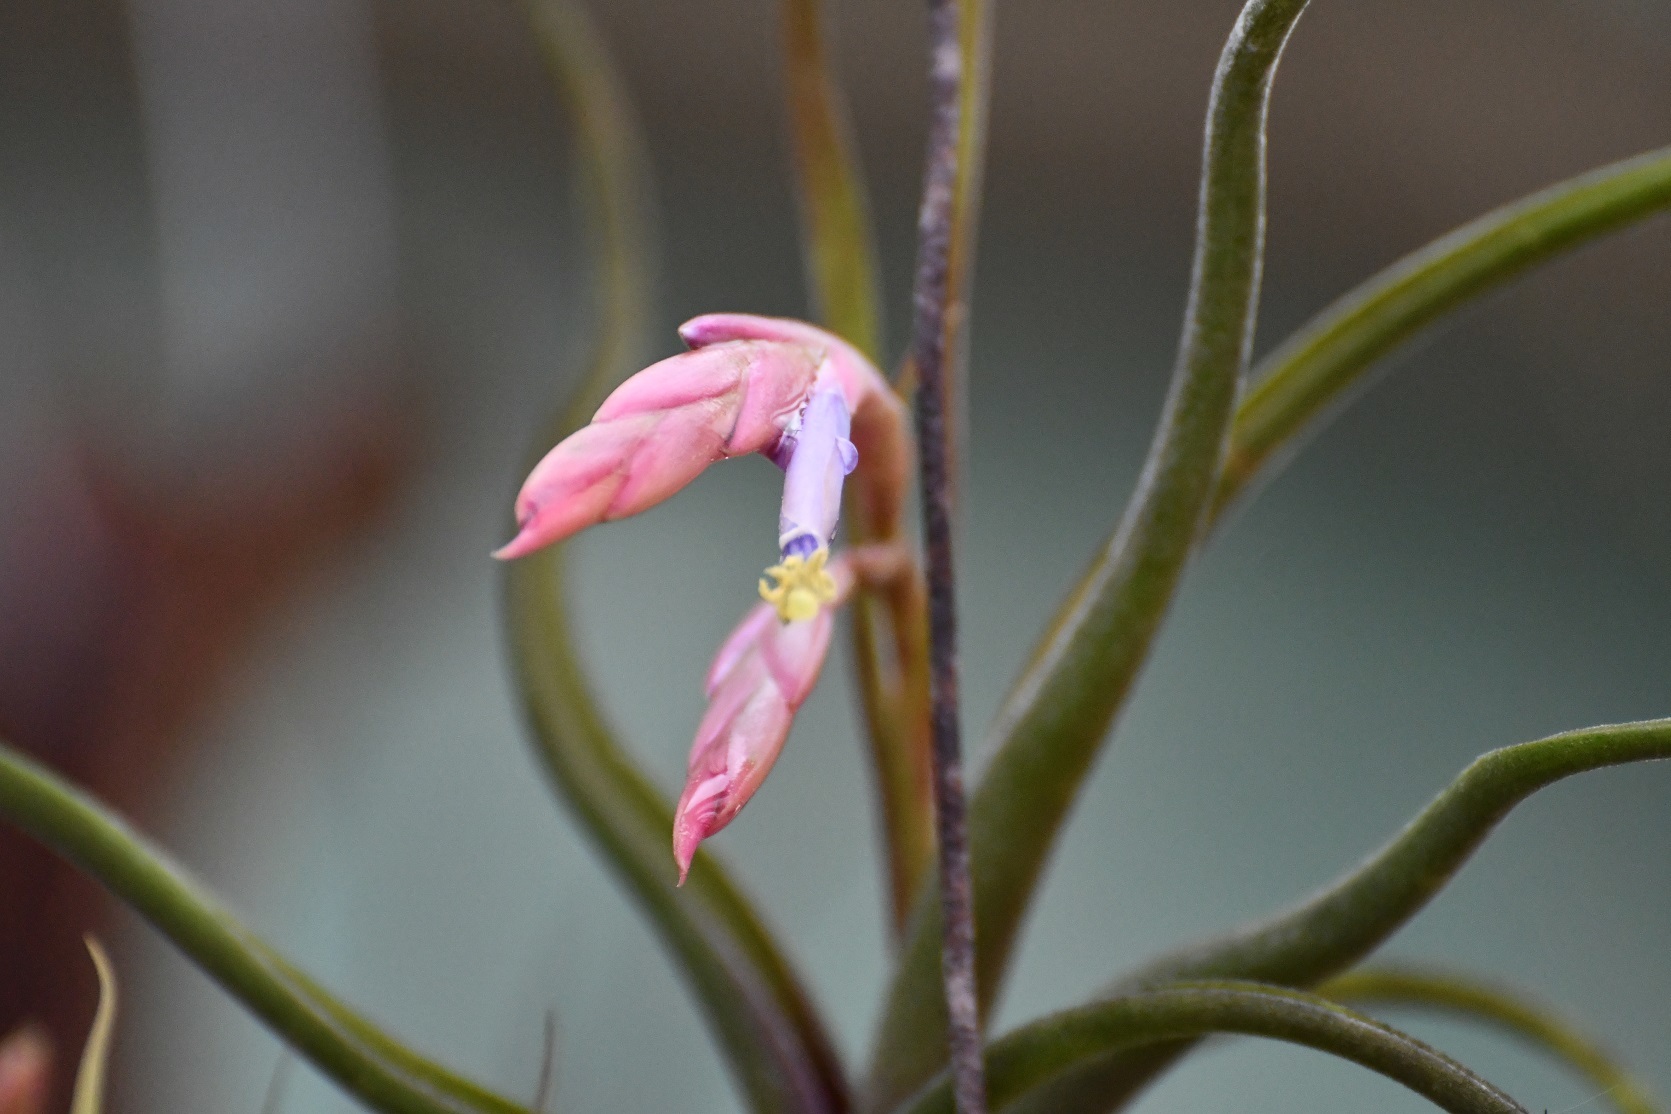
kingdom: Plantae
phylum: Tracheophyta
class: Liliopsida
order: Poales
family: Bromeliaceae
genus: Tillandsia
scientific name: Tillandsia caput-medusae
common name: Octopus plant
